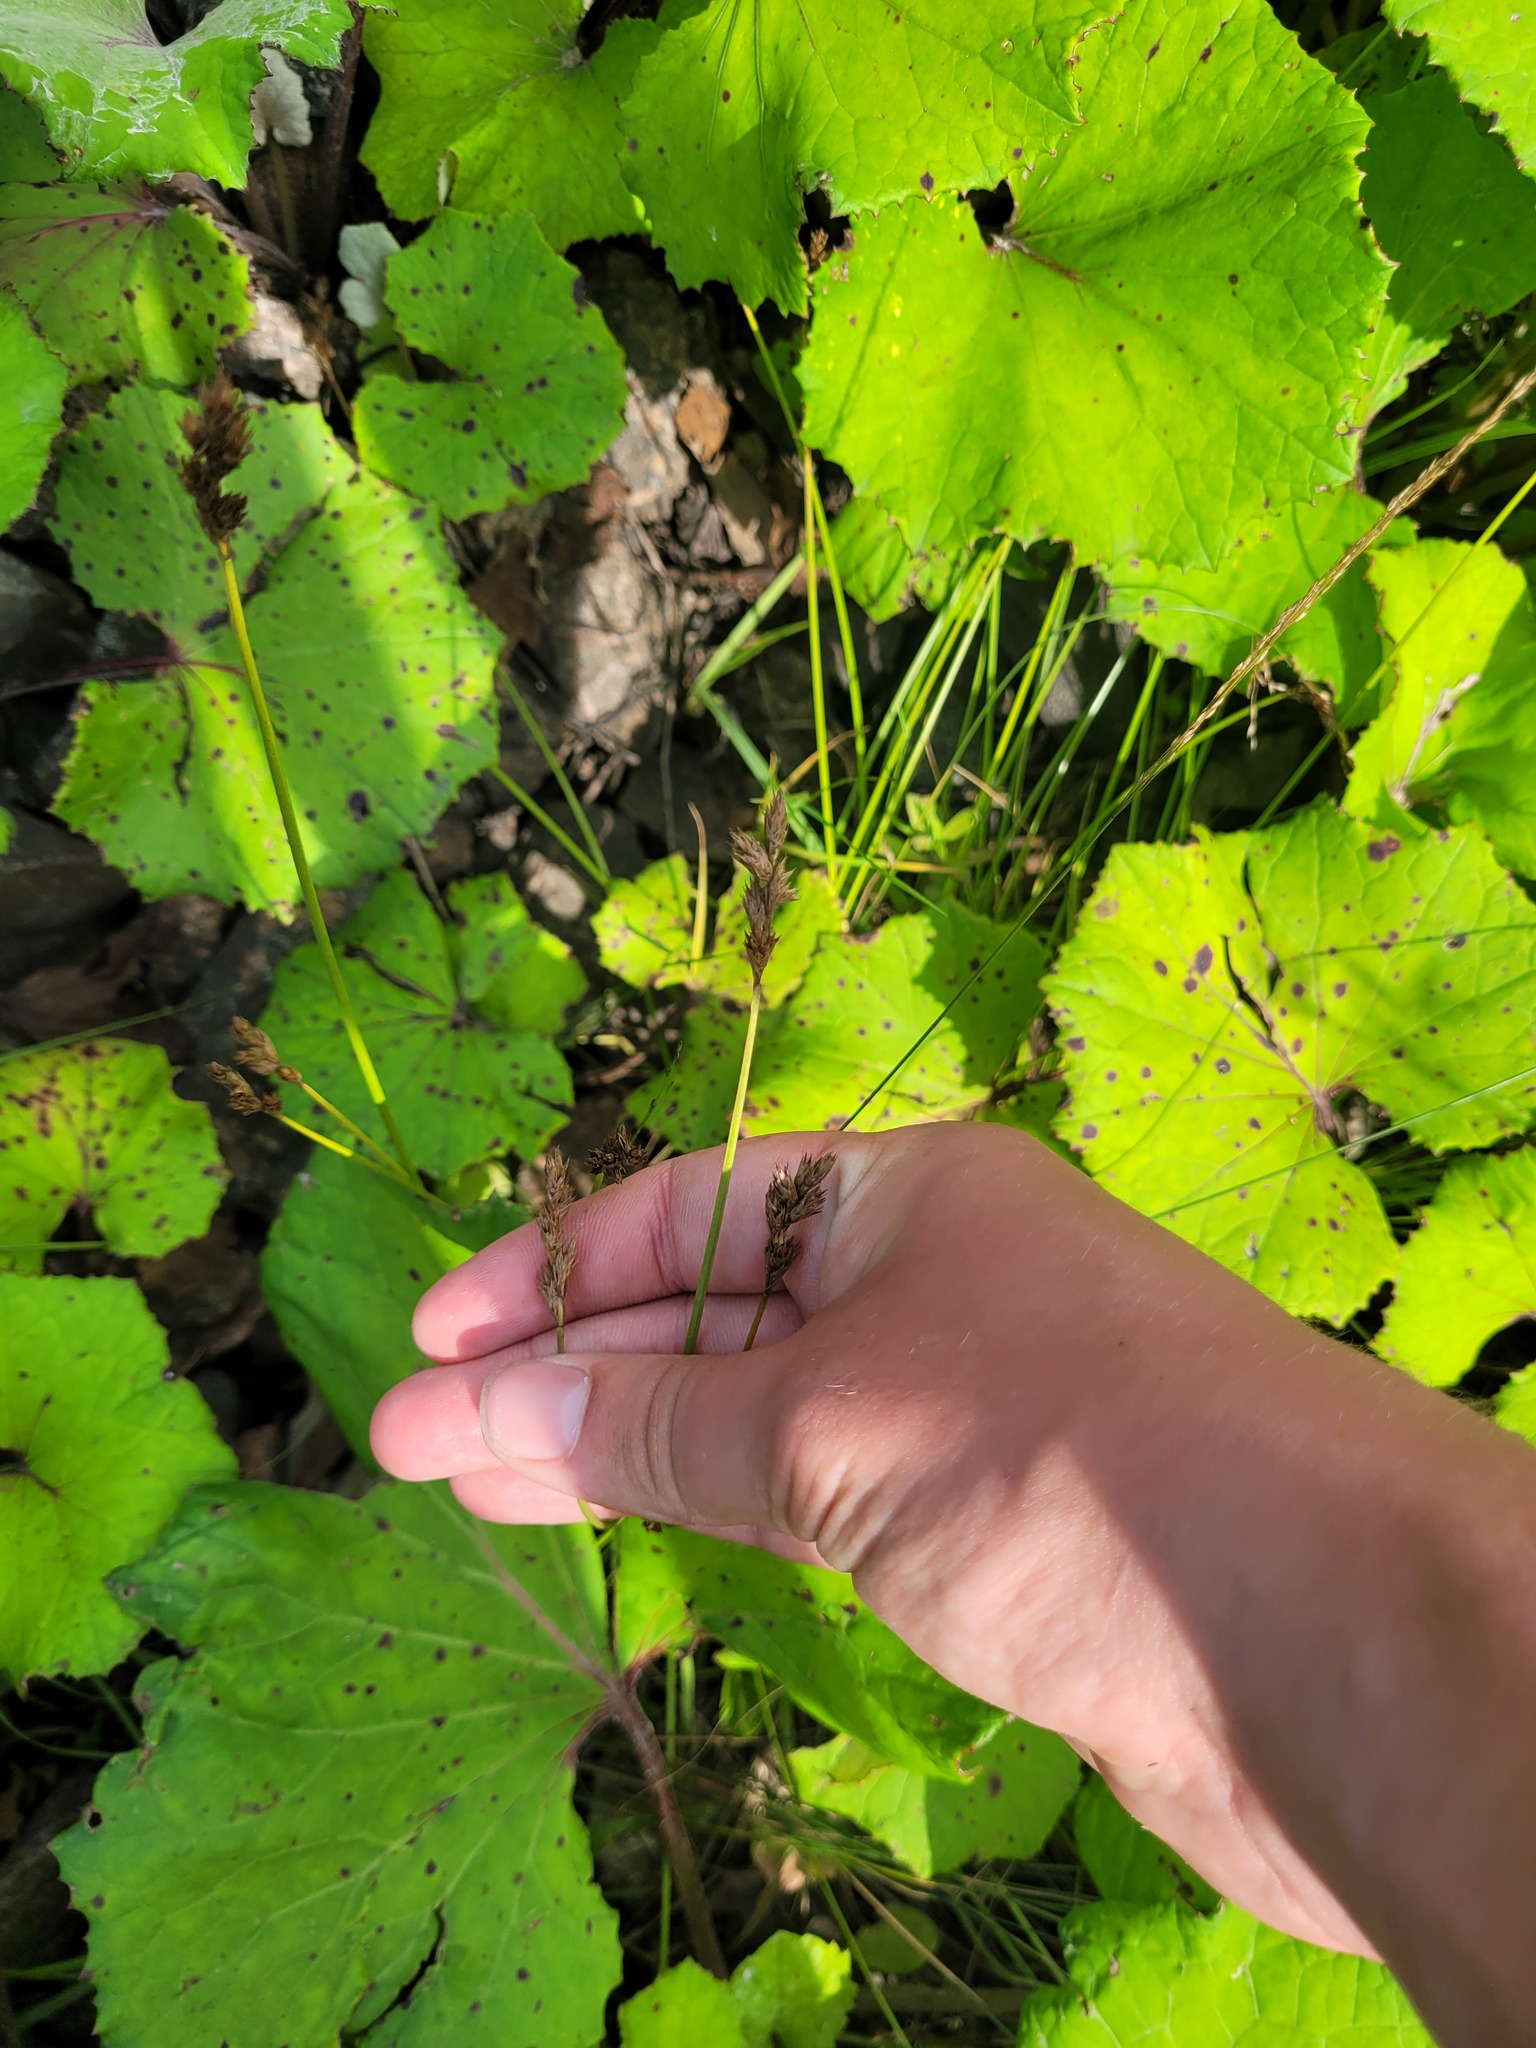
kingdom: Plantae
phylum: Tracheophyta
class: Liliopsida
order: Poales
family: Cyperaceae
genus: Carex
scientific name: Carex leporina
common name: Oval sedge
